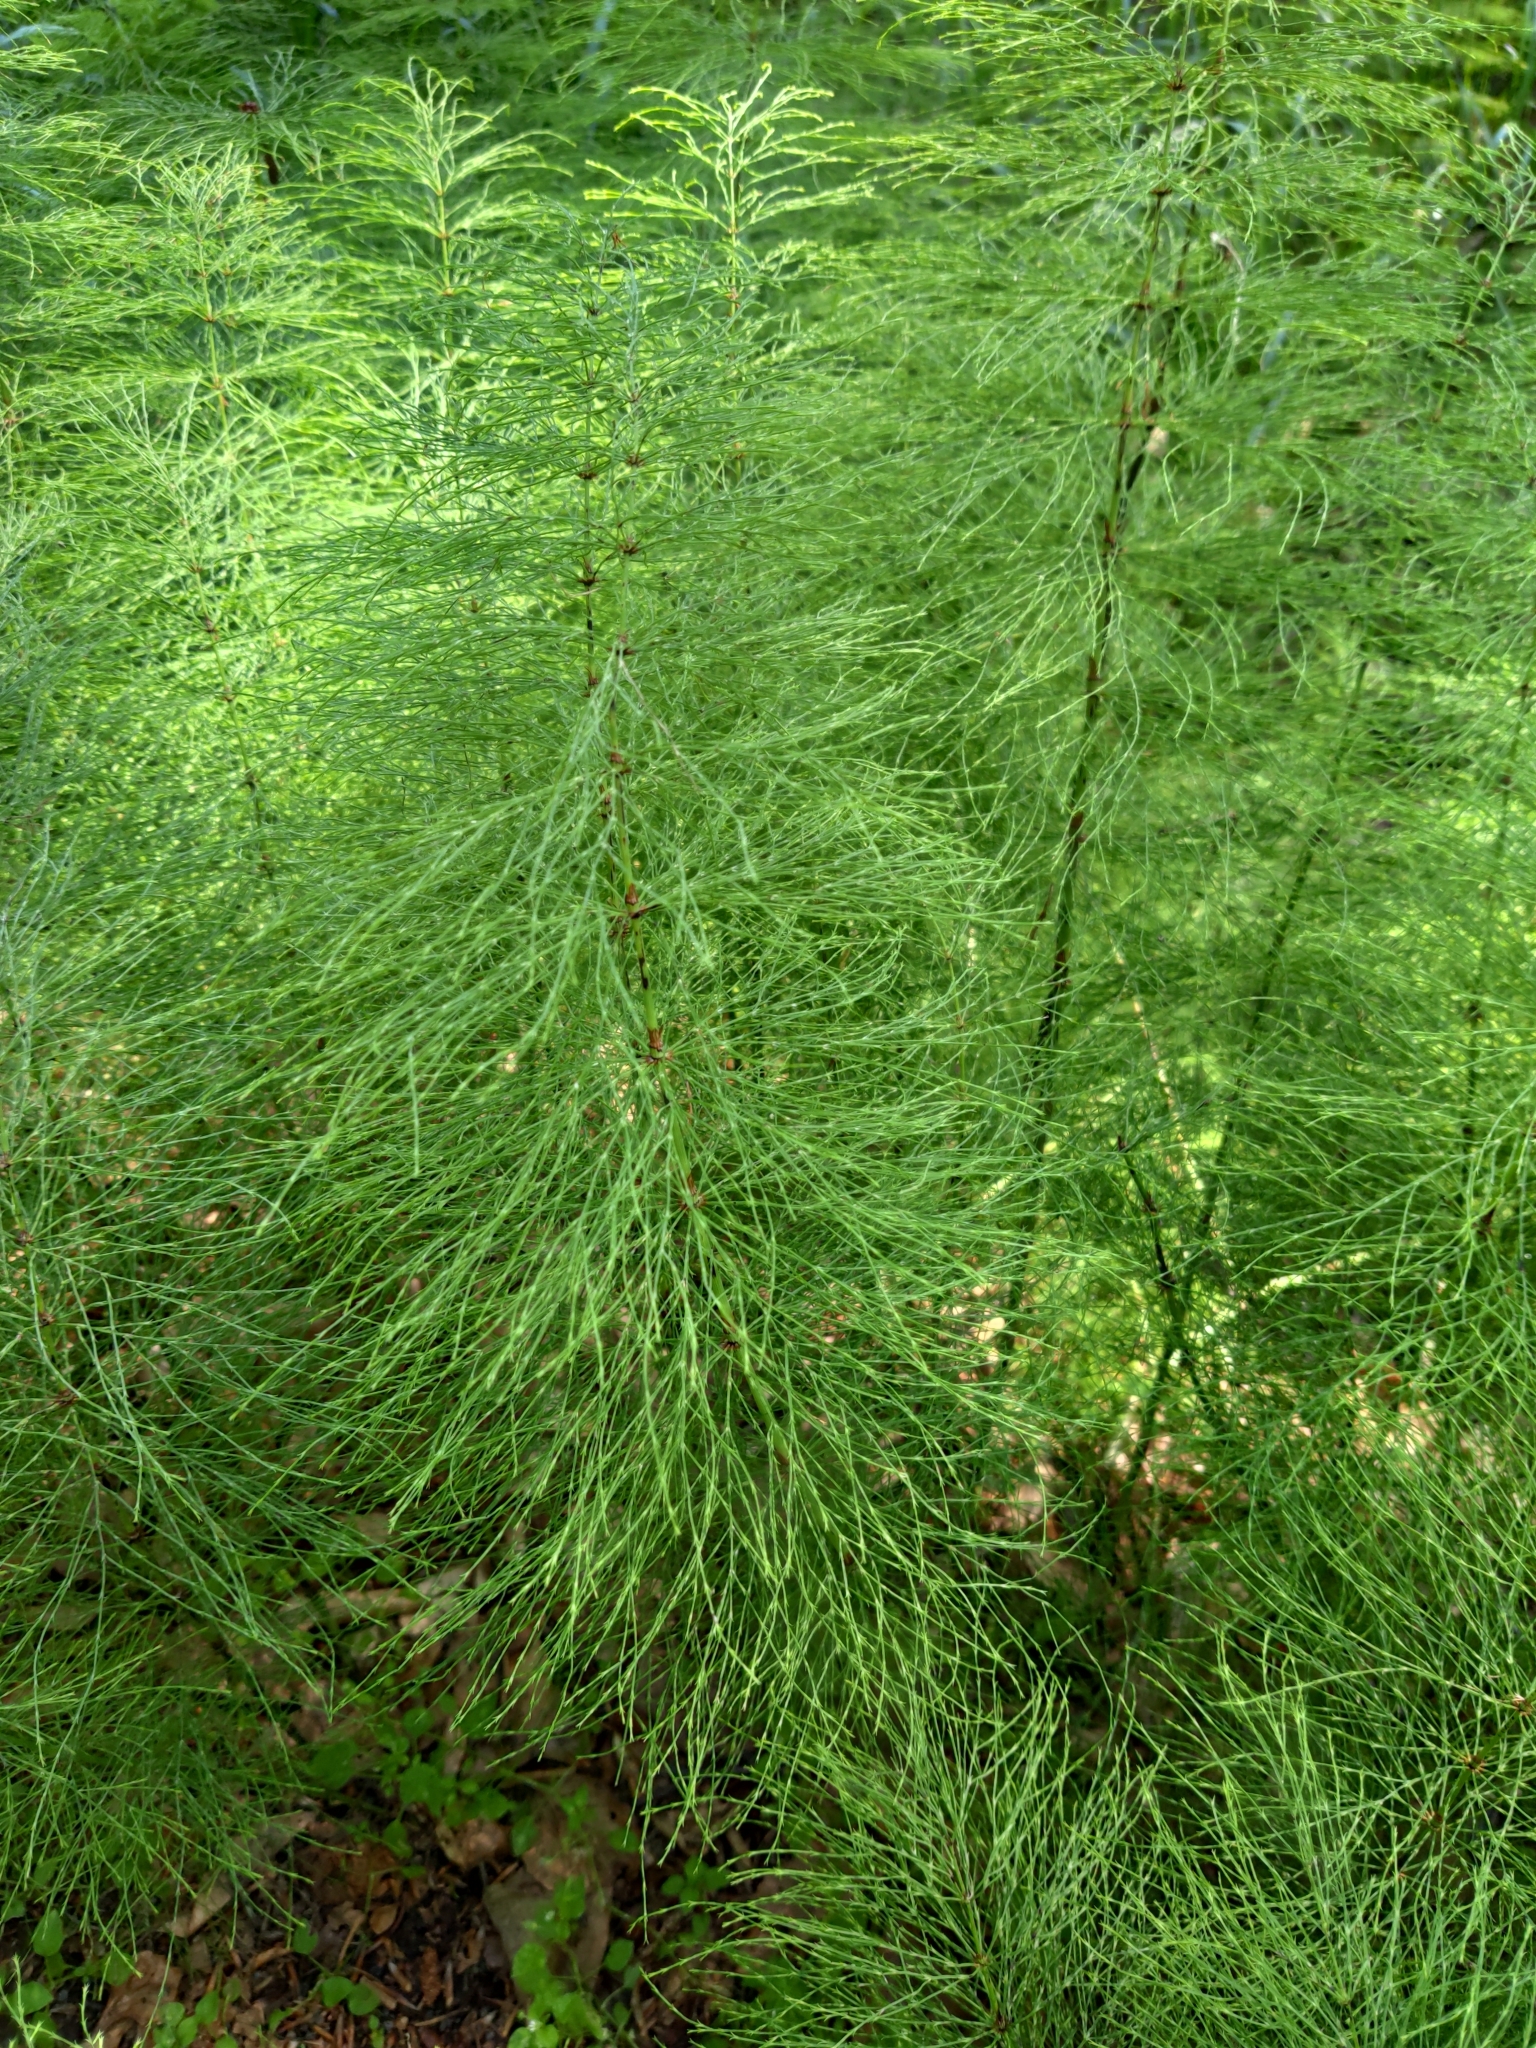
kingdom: Plantae
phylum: Tracheophyta
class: Polypodiopsida
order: Equisetales
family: Equisetaceae
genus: Equisetum
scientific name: Equisetum sylvaticum
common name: Wood horsetail
